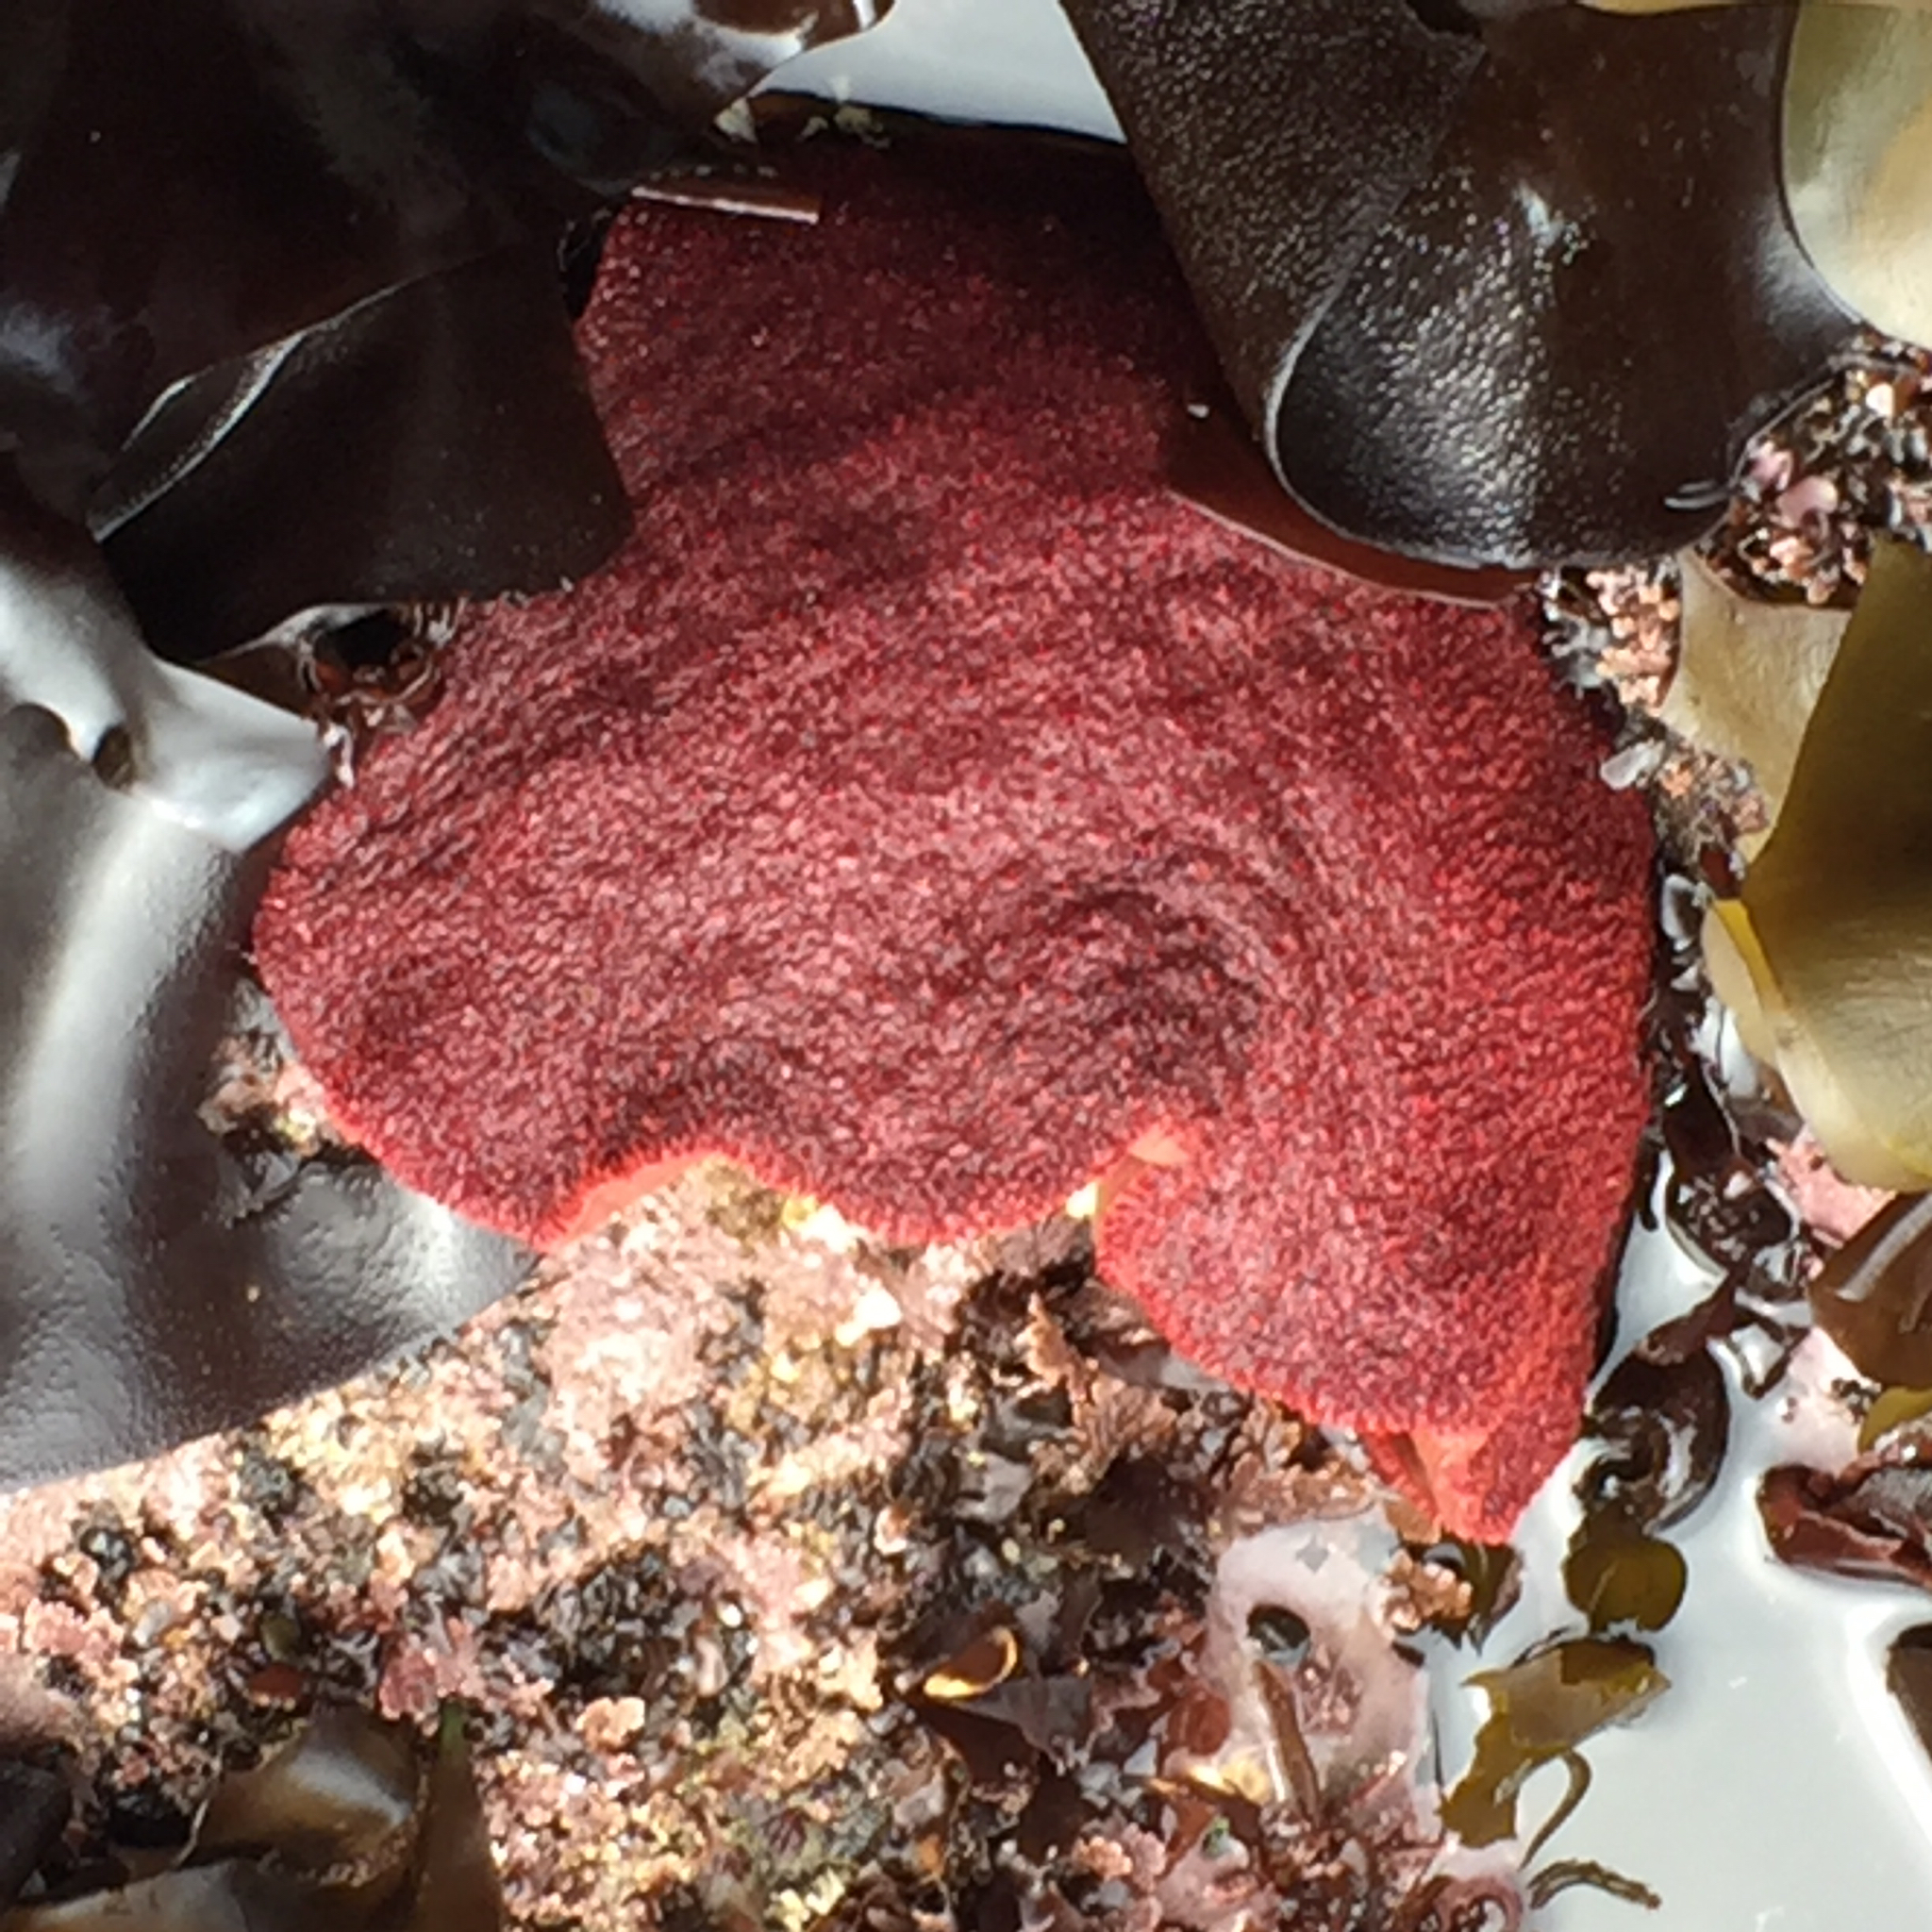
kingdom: Animalia
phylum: Mollusca
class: Polyplacophora
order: Chitonida
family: Acanthochitonidae
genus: Cryptochiton
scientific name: Cryptochiton stelleri
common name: Giant pacific chiton
